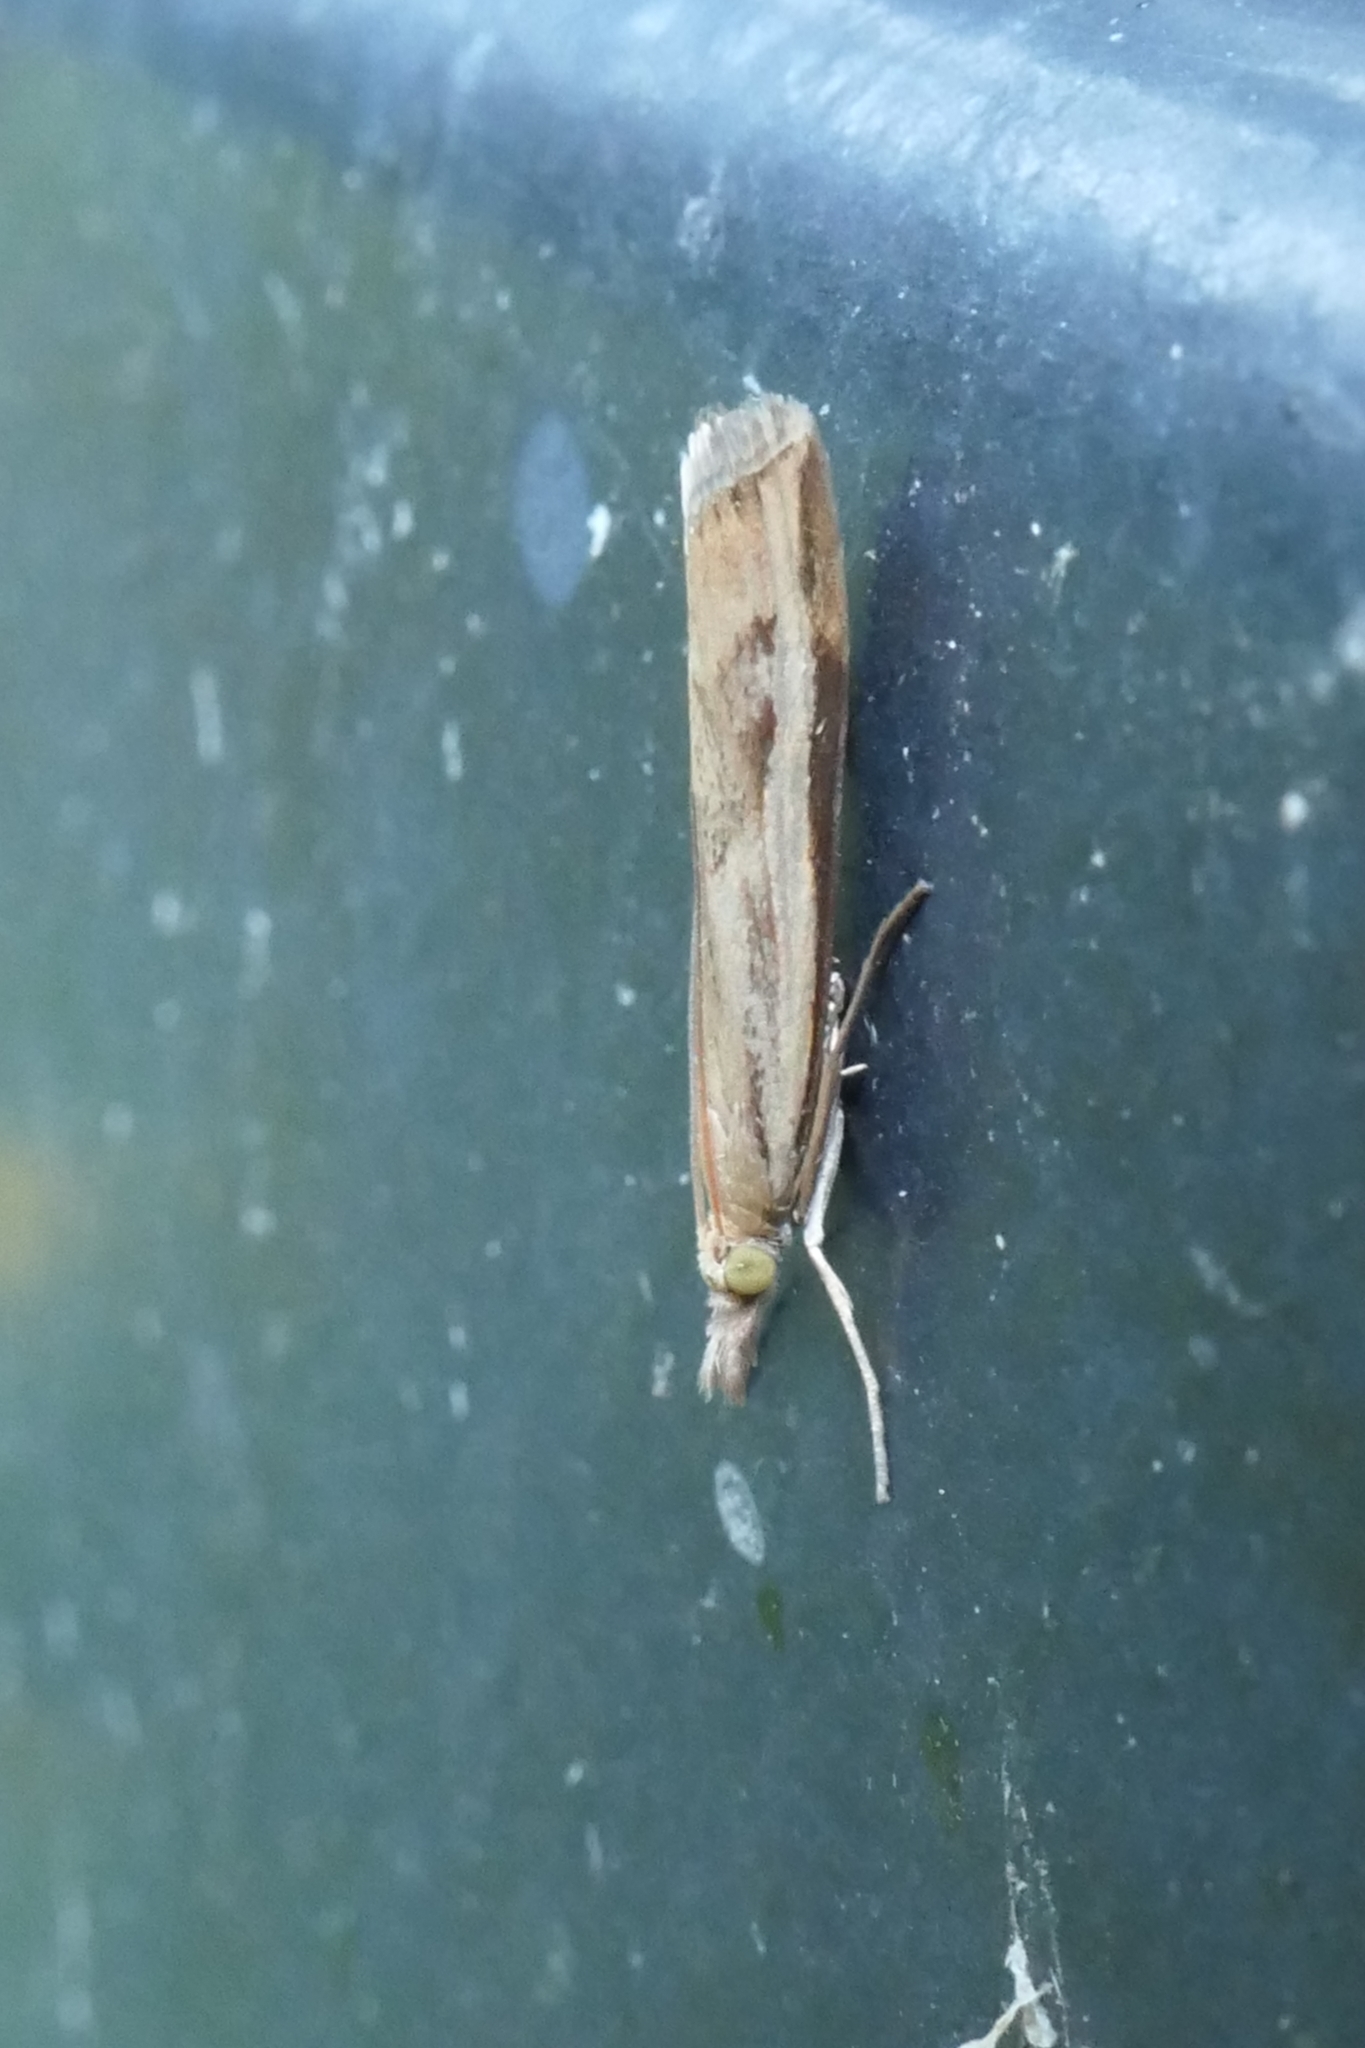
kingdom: Animalia
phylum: Arthropoda
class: Insecta
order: Lepidoptera
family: Crambidae
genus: Orocrambus
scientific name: Orocrambus flexuosellus
